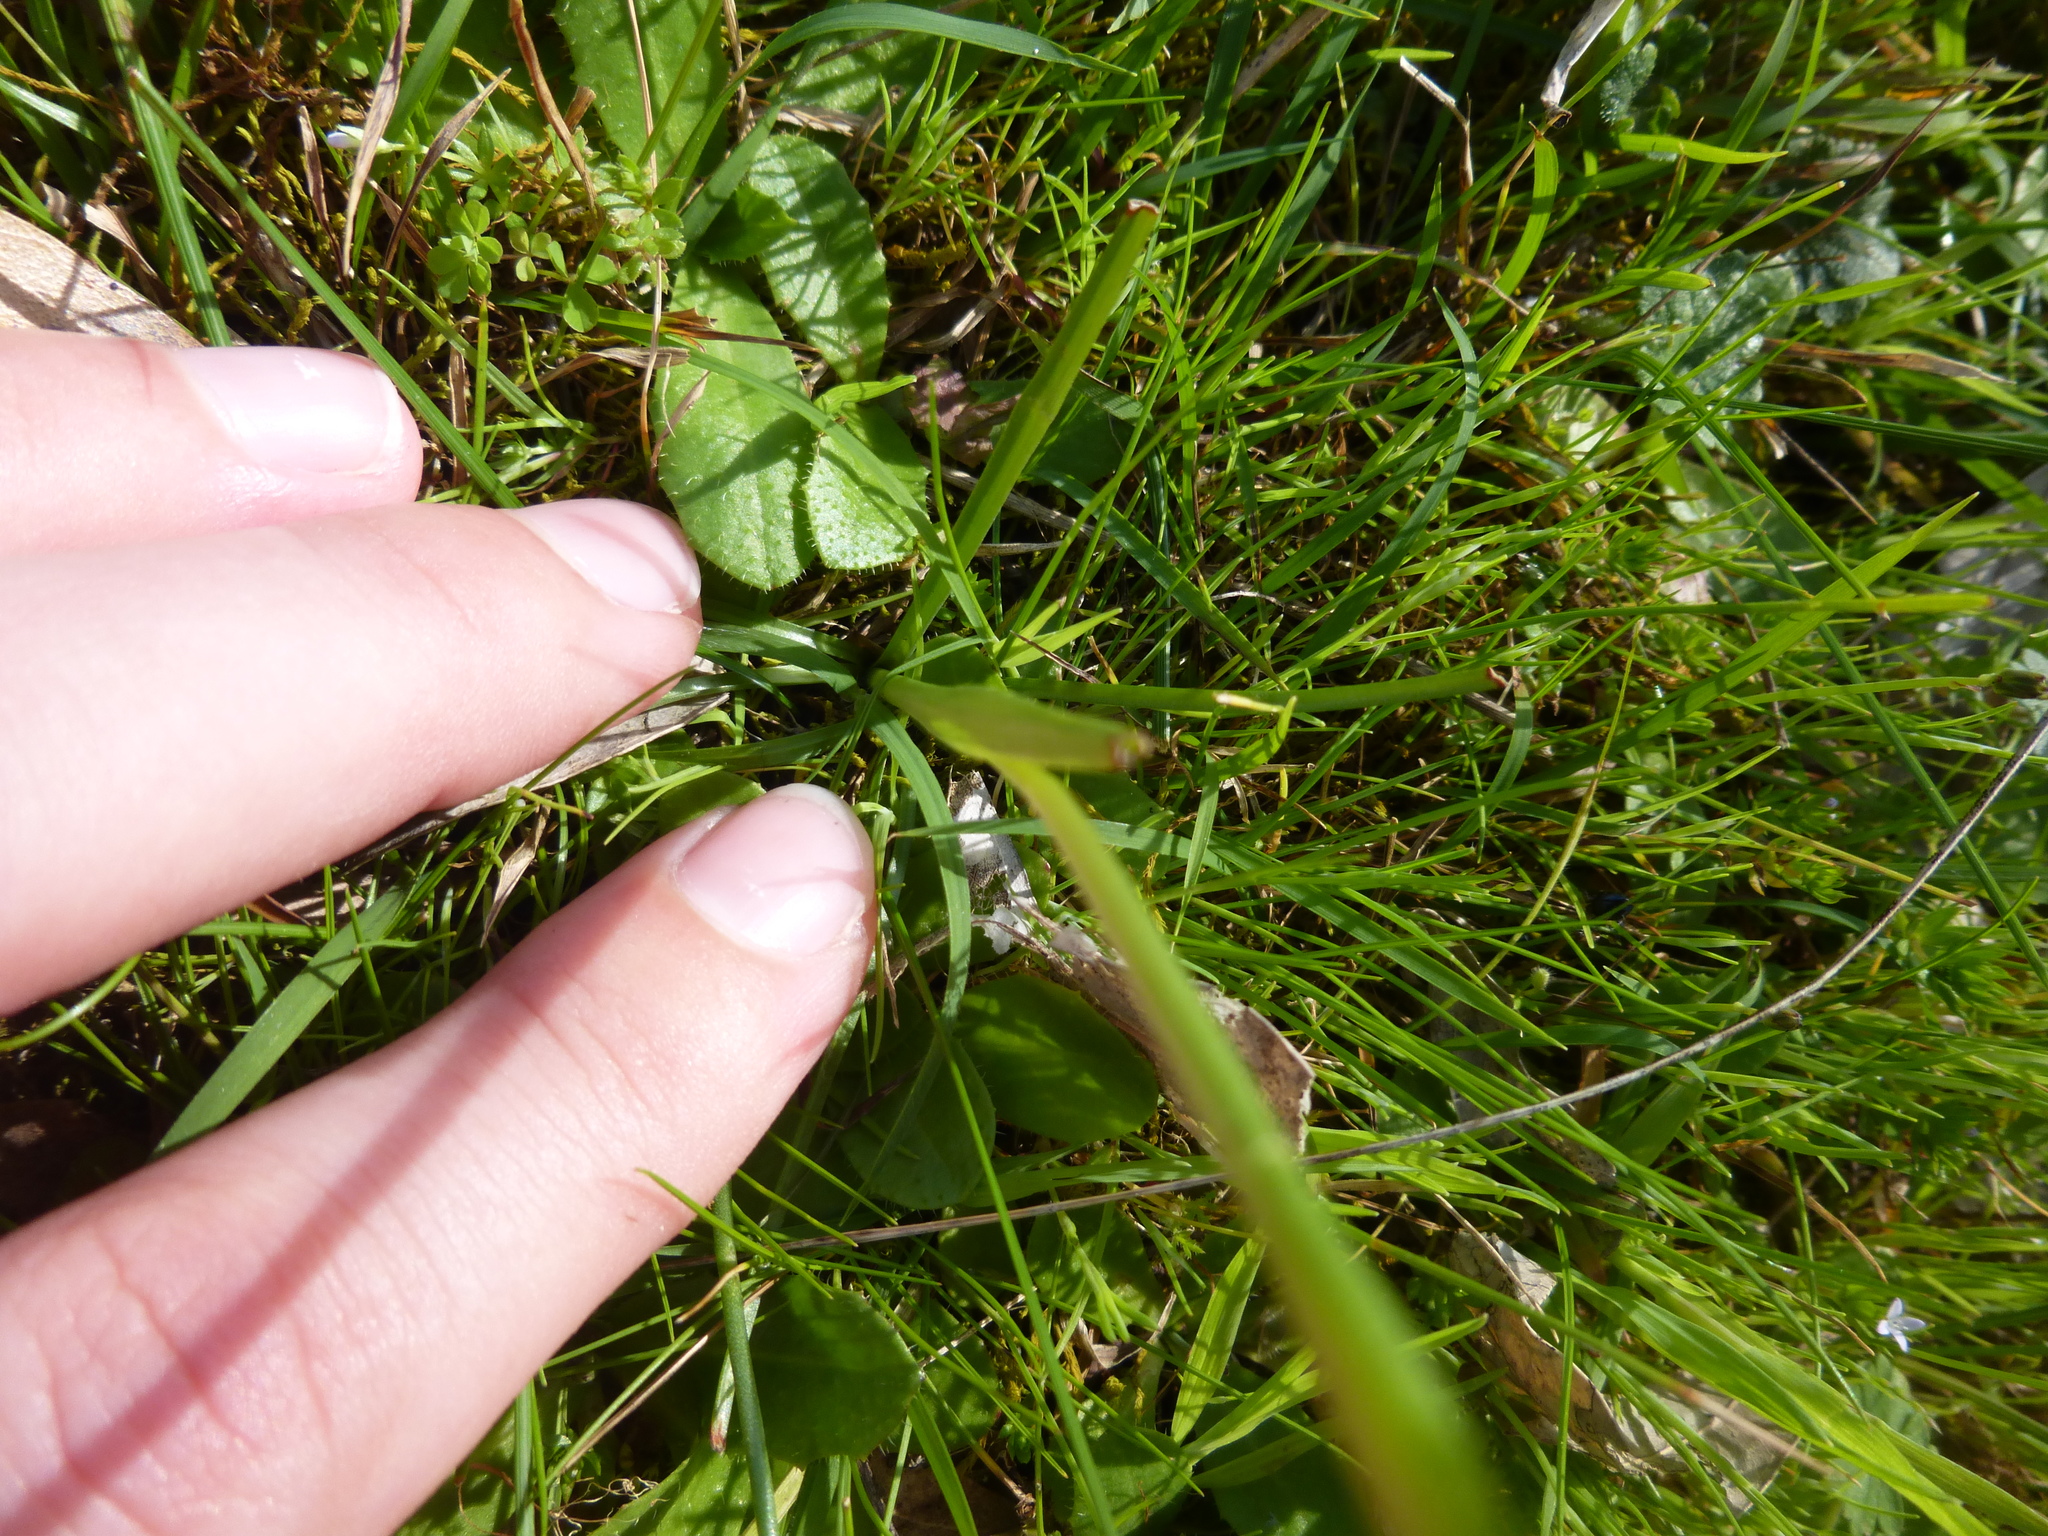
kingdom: Plantae
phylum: Tracheophyta
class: Liliopsida
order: Asparagales
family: Orchidaceae
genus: Diuris
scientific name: Diuris chryseopsis
